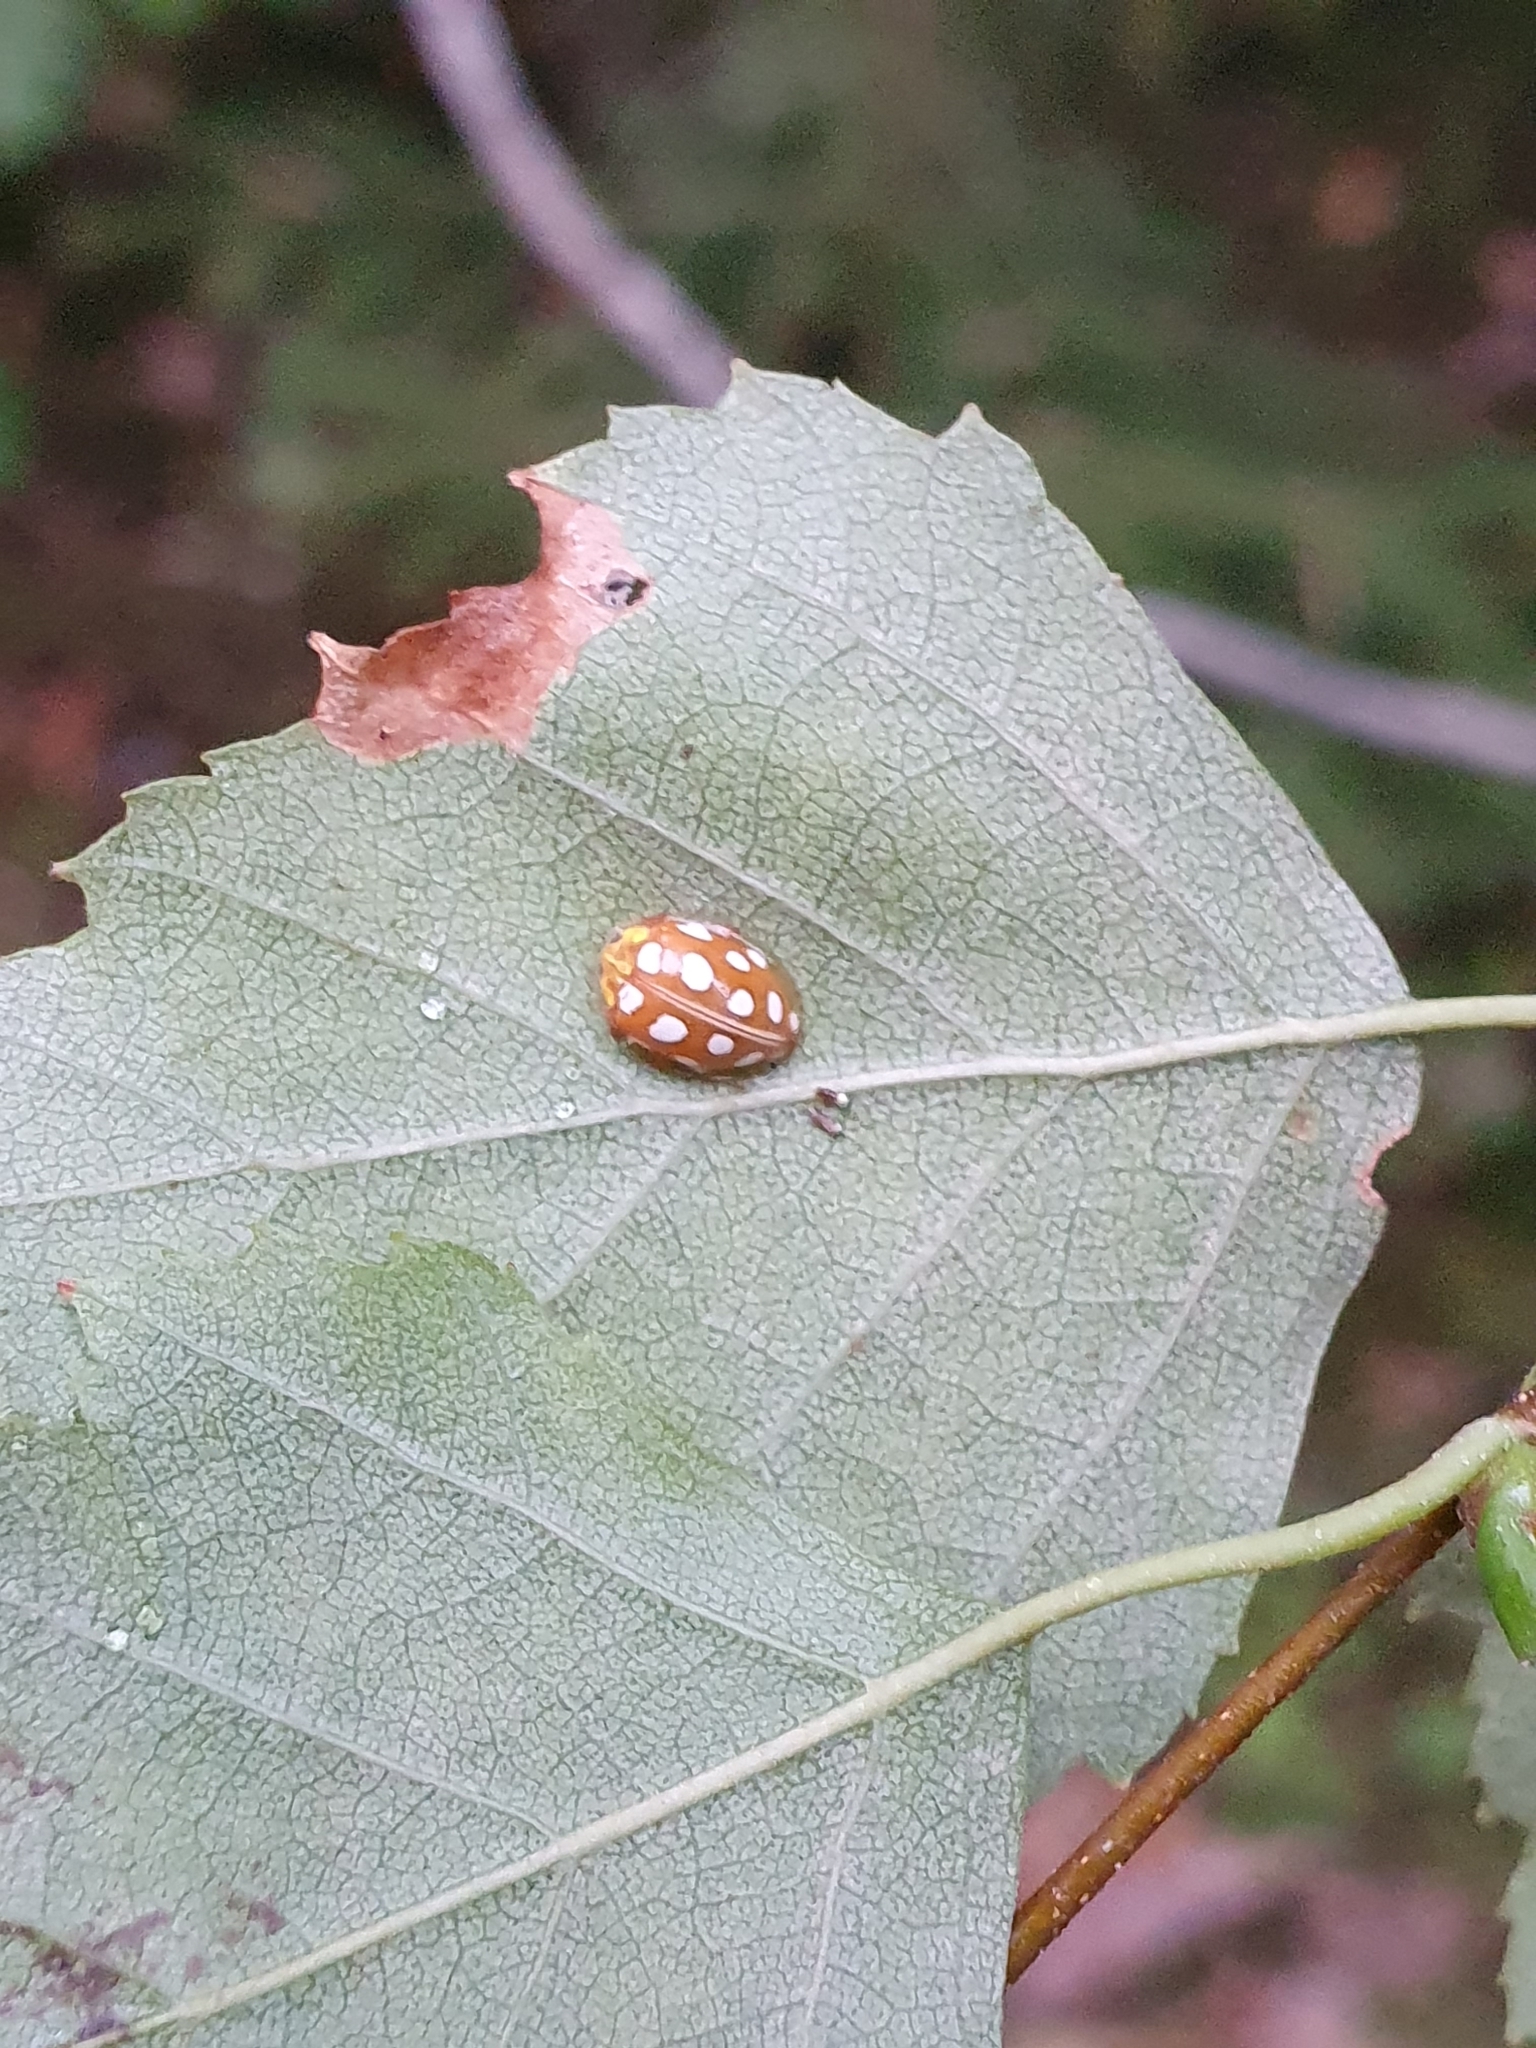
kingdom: Animalia
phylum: Arthropoda
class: Insecta
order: Coleoptera
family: Coccinellidae
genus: Halyzia
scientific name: Halyzia sedecimguttata
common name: Orange ladybird
